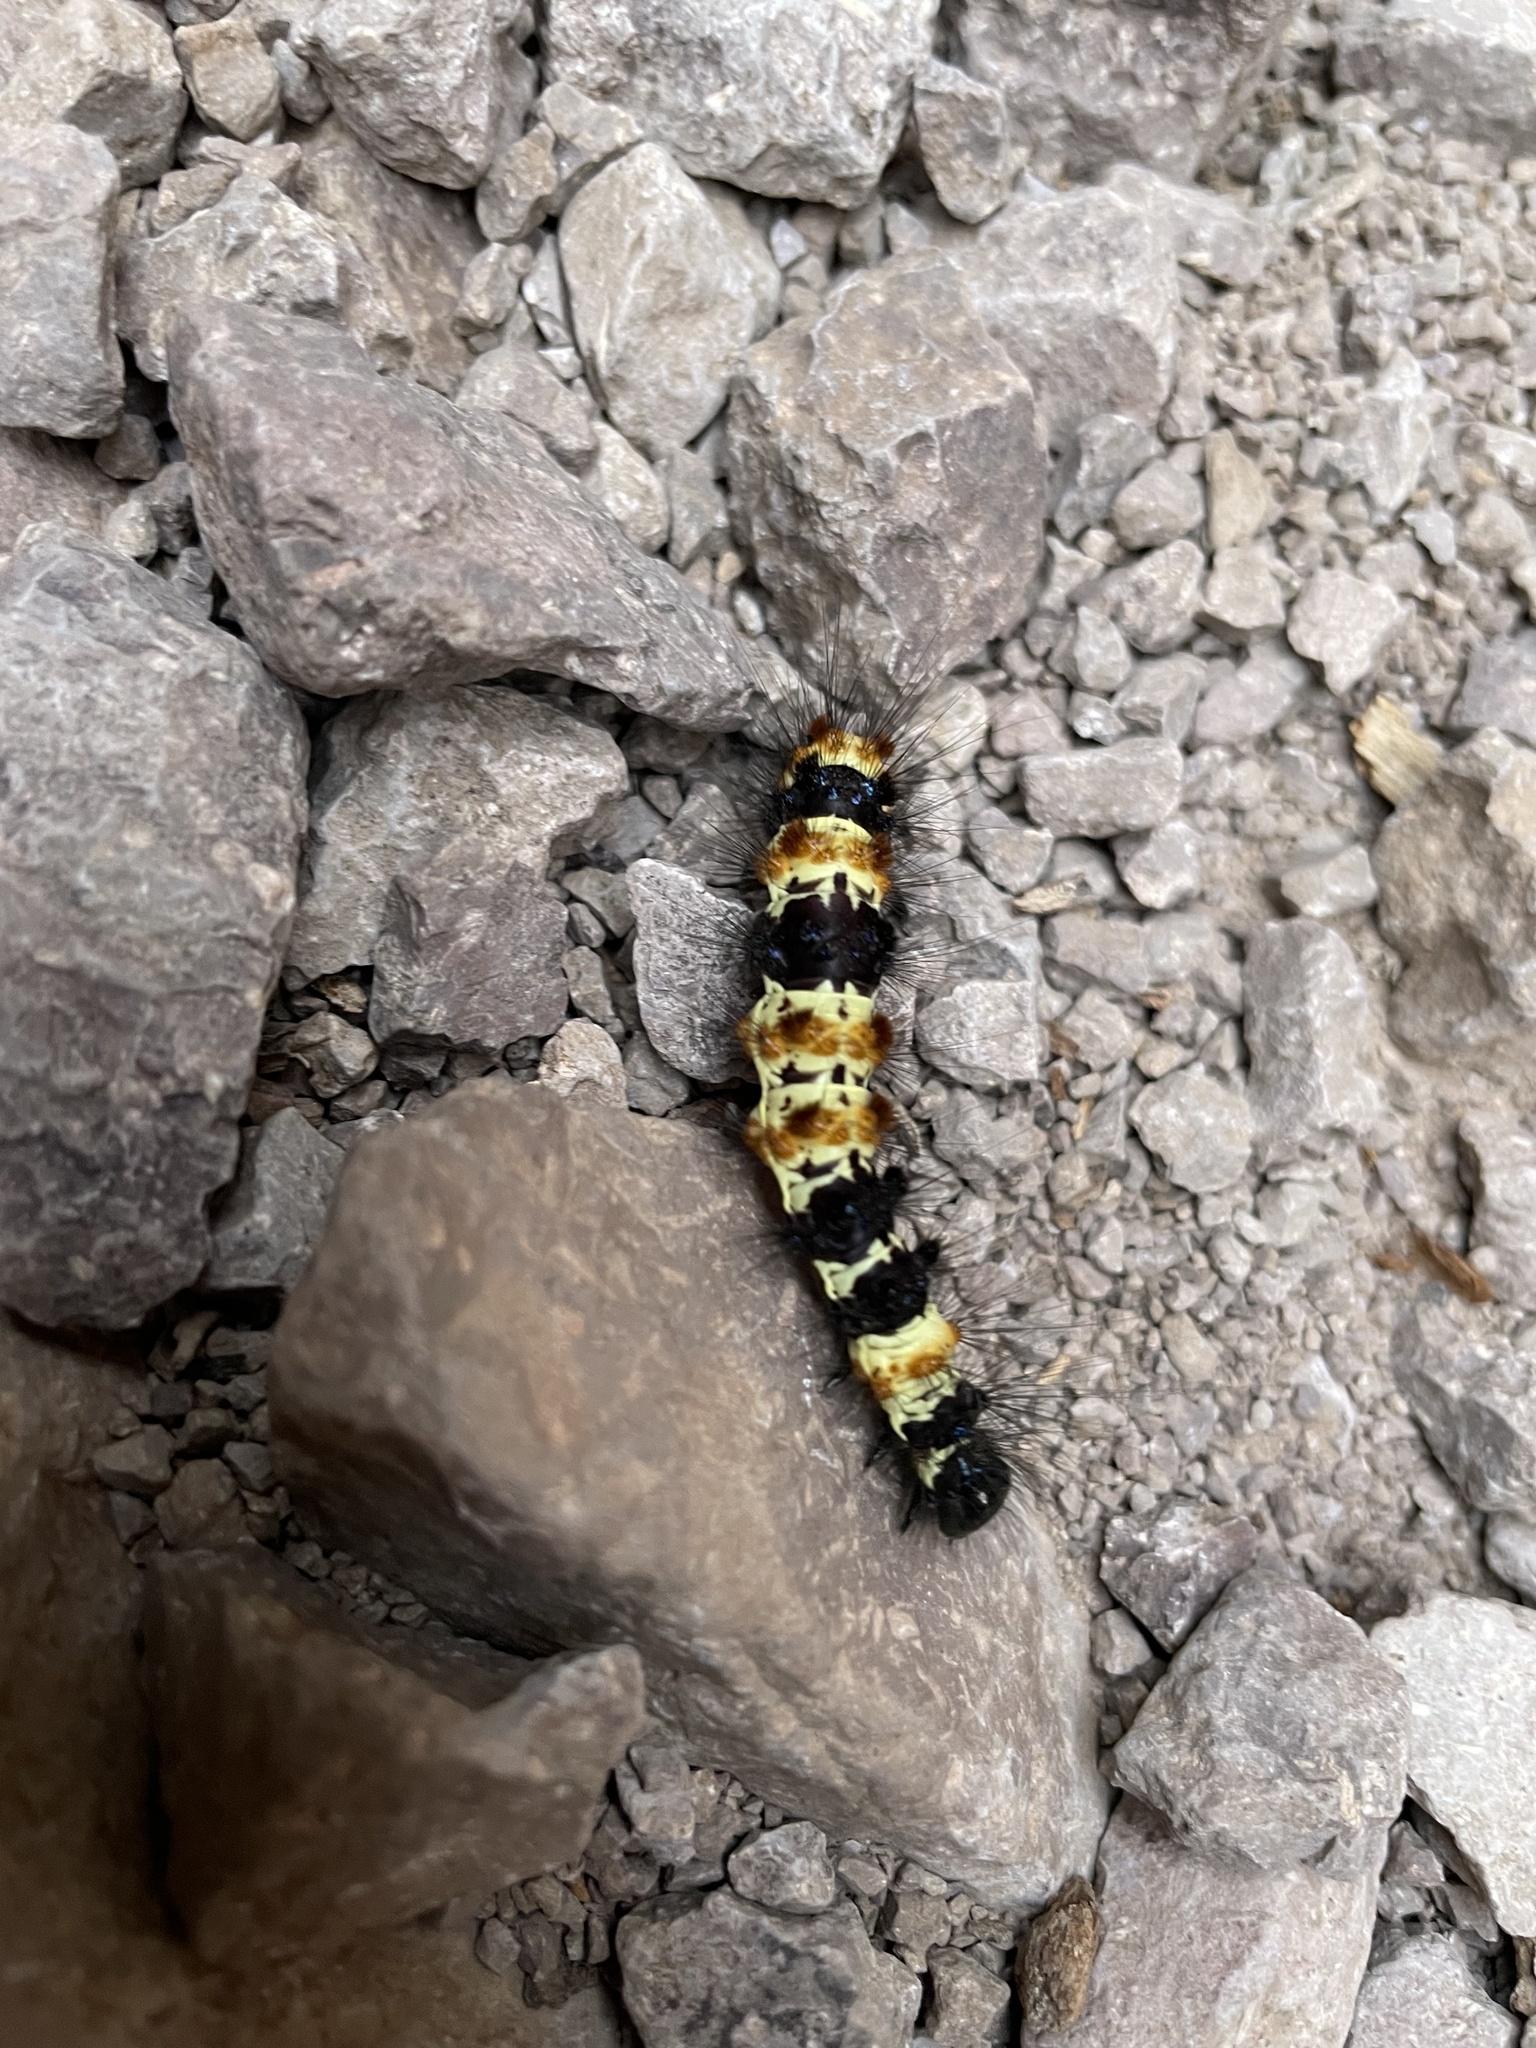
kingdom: Animalia
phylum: Arthropoda
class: Insecta
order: Lepidoptera
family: Erebidae
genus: Dysschema
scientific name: Dysschema howardi
